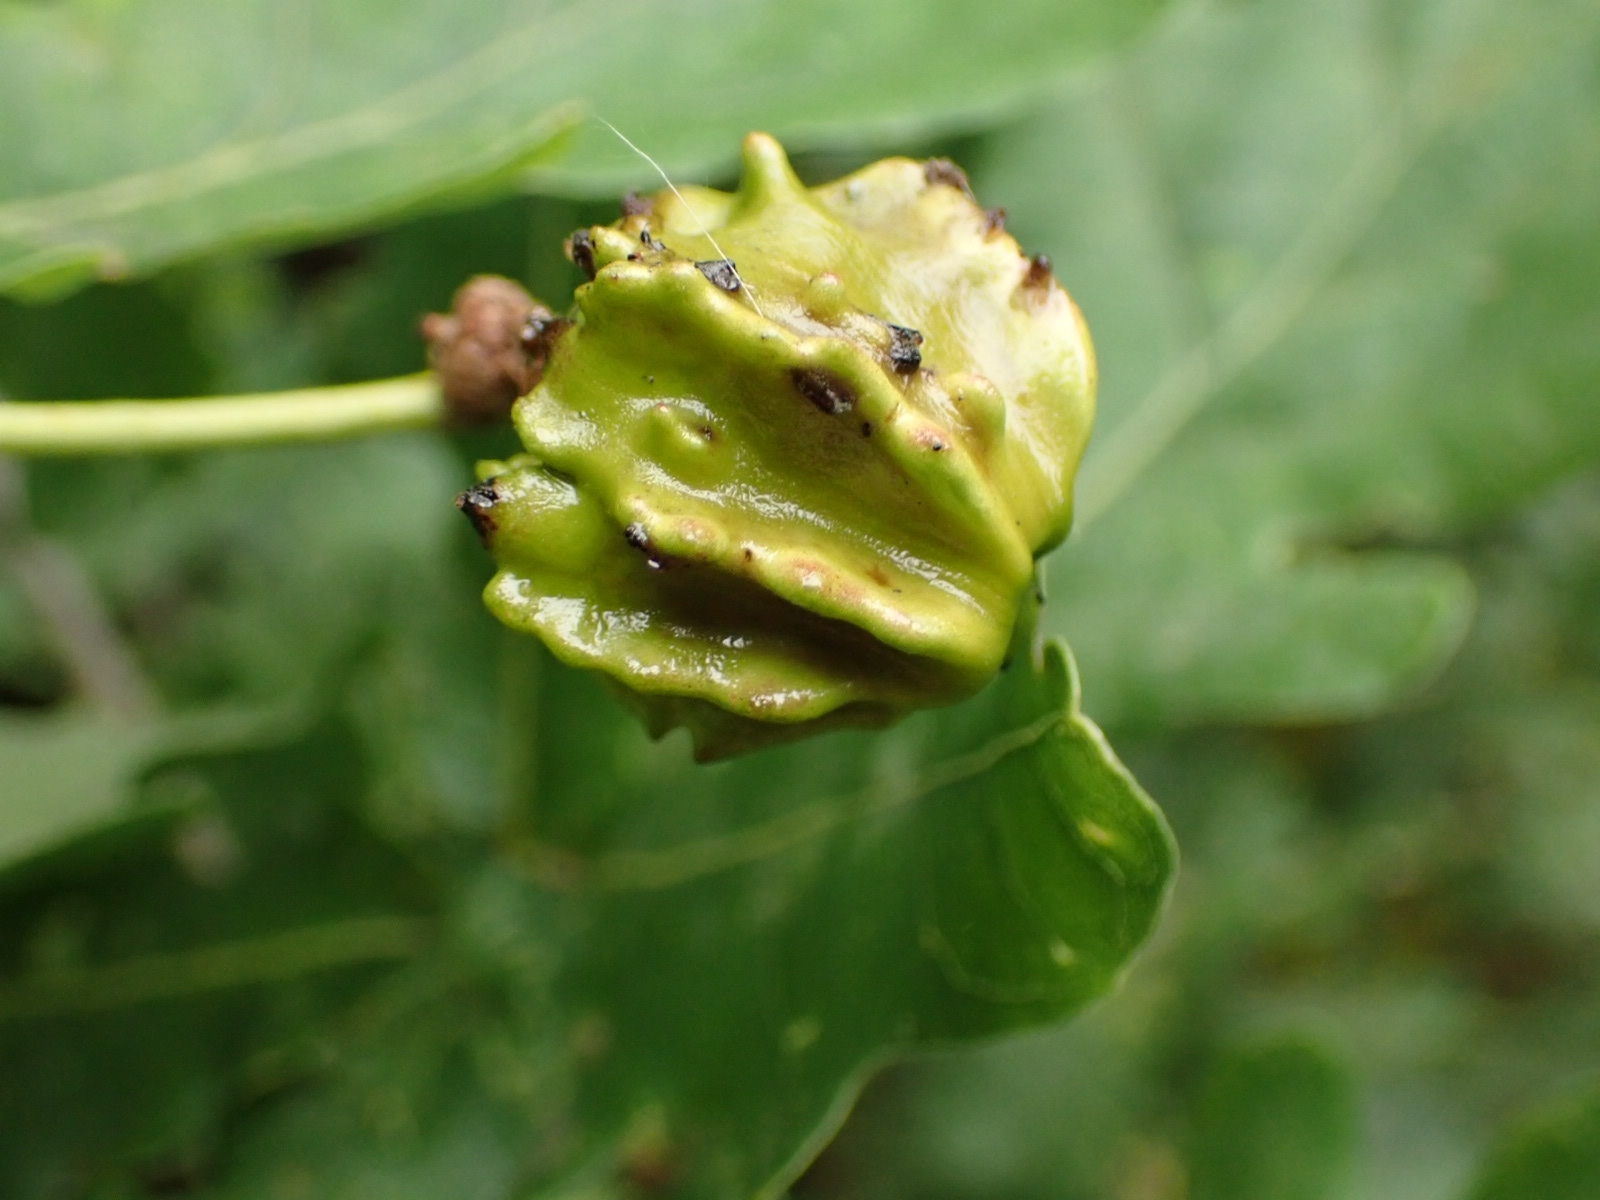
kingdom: Animalia
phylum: Arthropoda
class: Insecta
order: Hymenoptera
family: Cynipidae
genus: Andricus
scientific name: Andricus quercuscalicis
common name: Knopper gall
